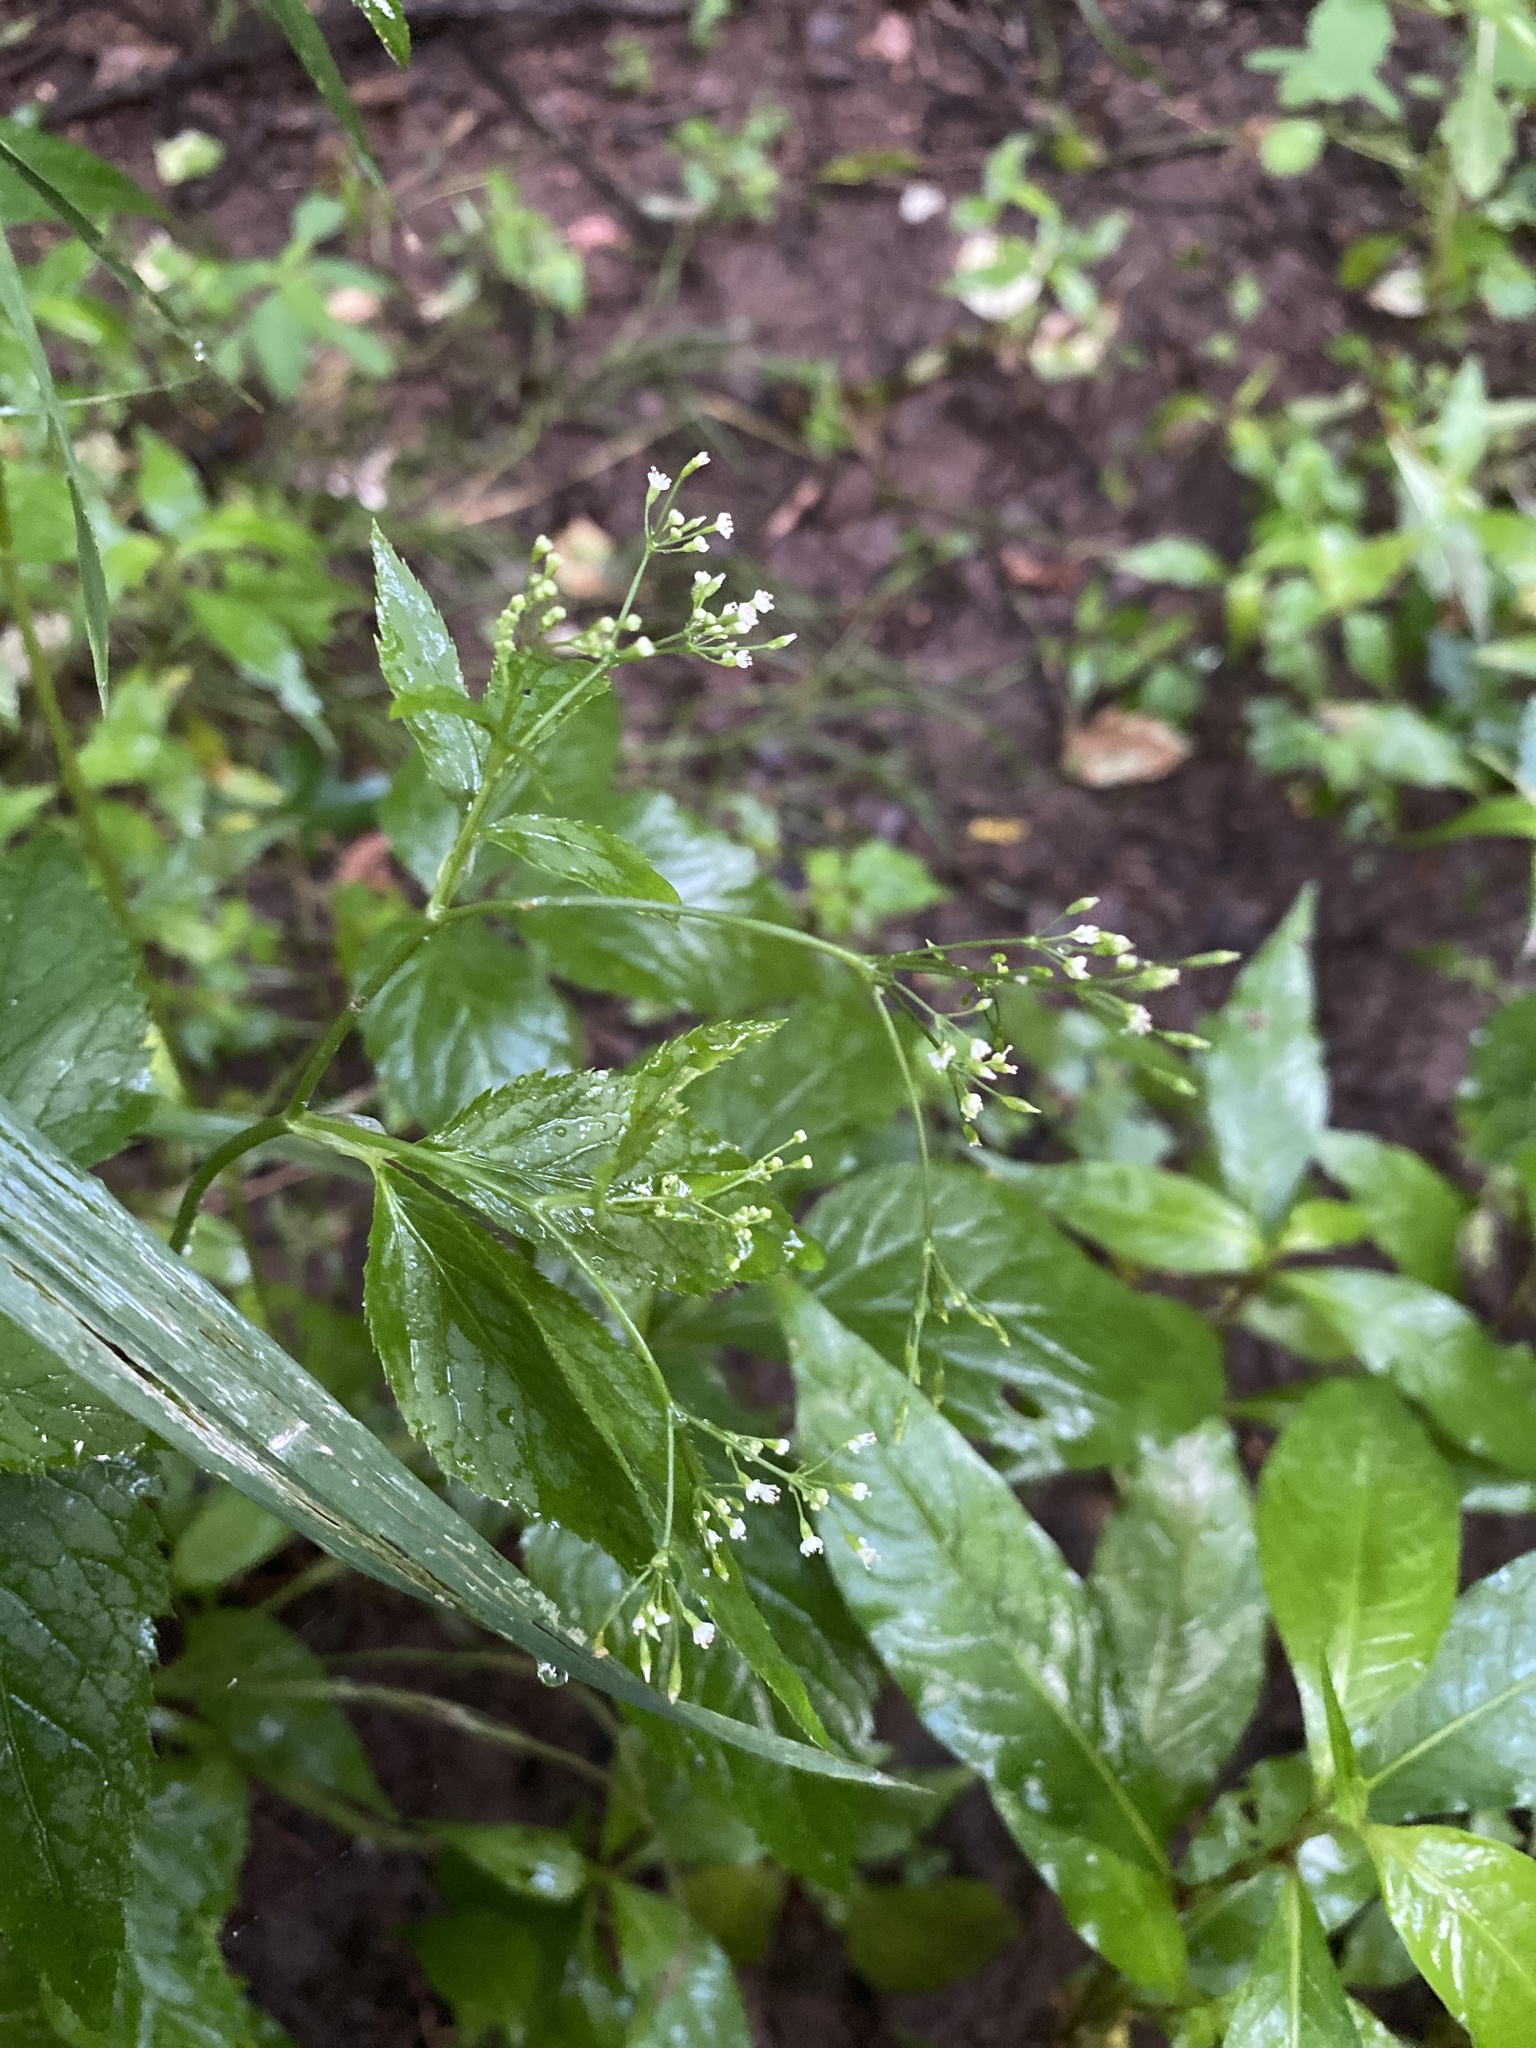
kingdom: Plantae
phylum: Tracheophyta
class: Magnoliopsida
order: Apiales
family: Apiaceae
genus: Cryptotaenia
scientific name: Cryptotaenia canadensis
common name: Honewort
